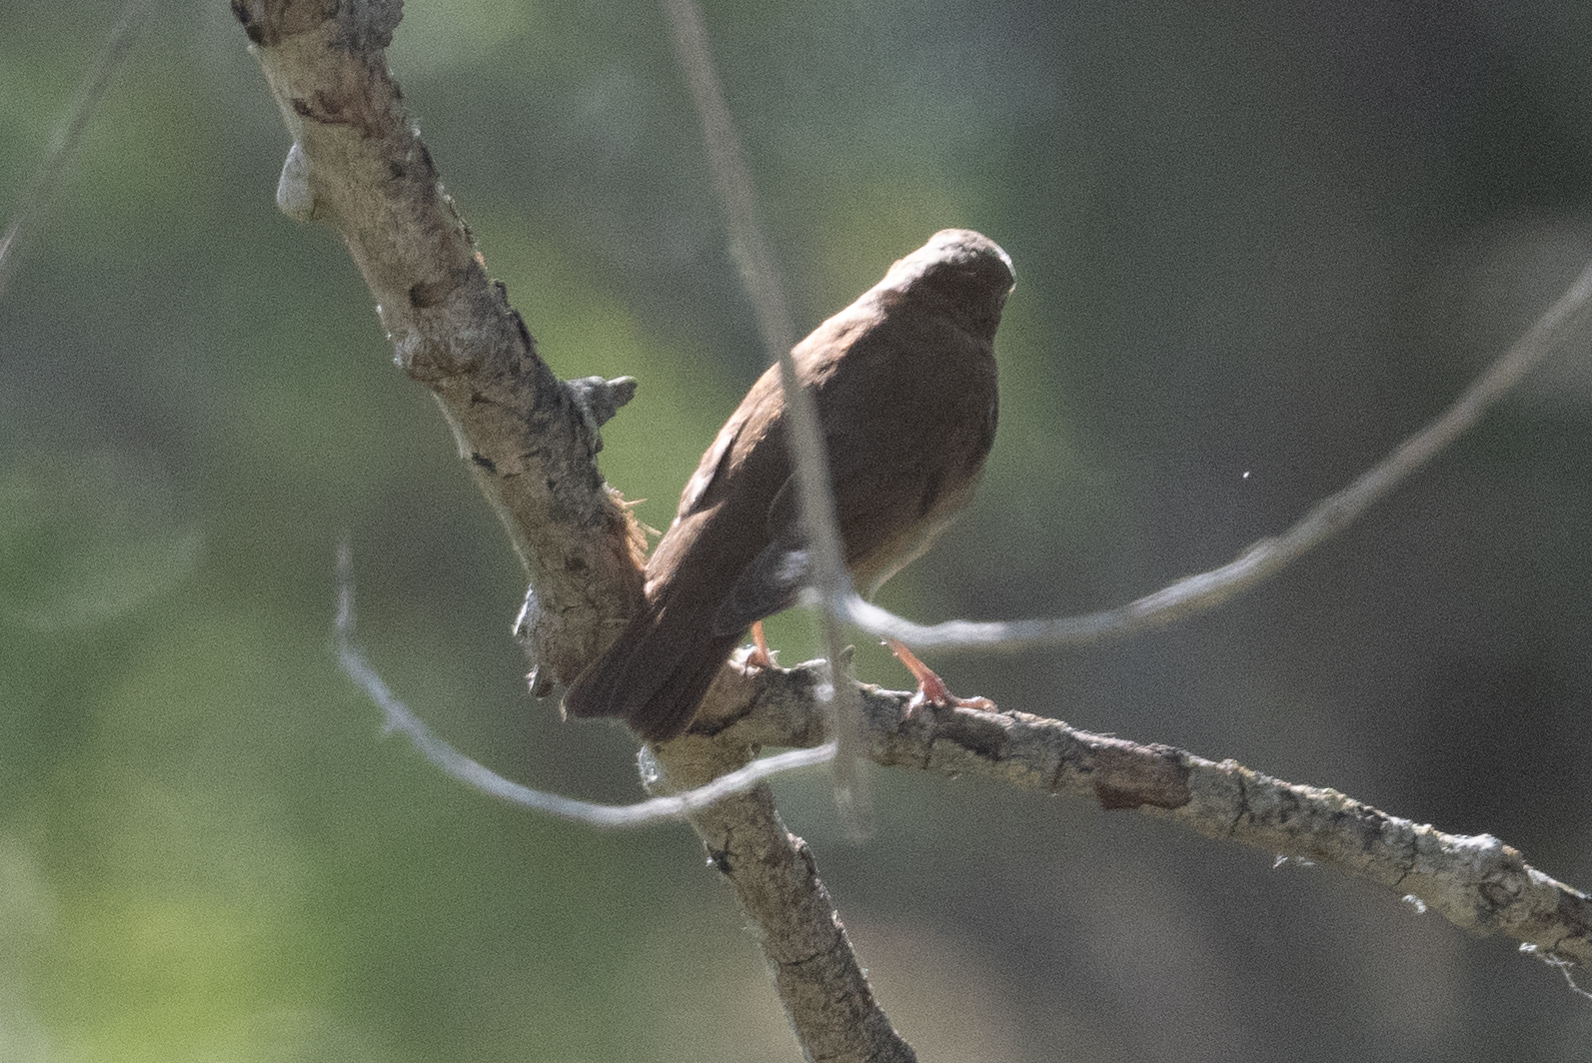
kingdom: Animalia
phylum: Chordata
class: Aves
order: Passeriformes
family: Turdidae
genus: Catharus
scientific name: Catharus ustulatus
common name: Swainson's thrush
